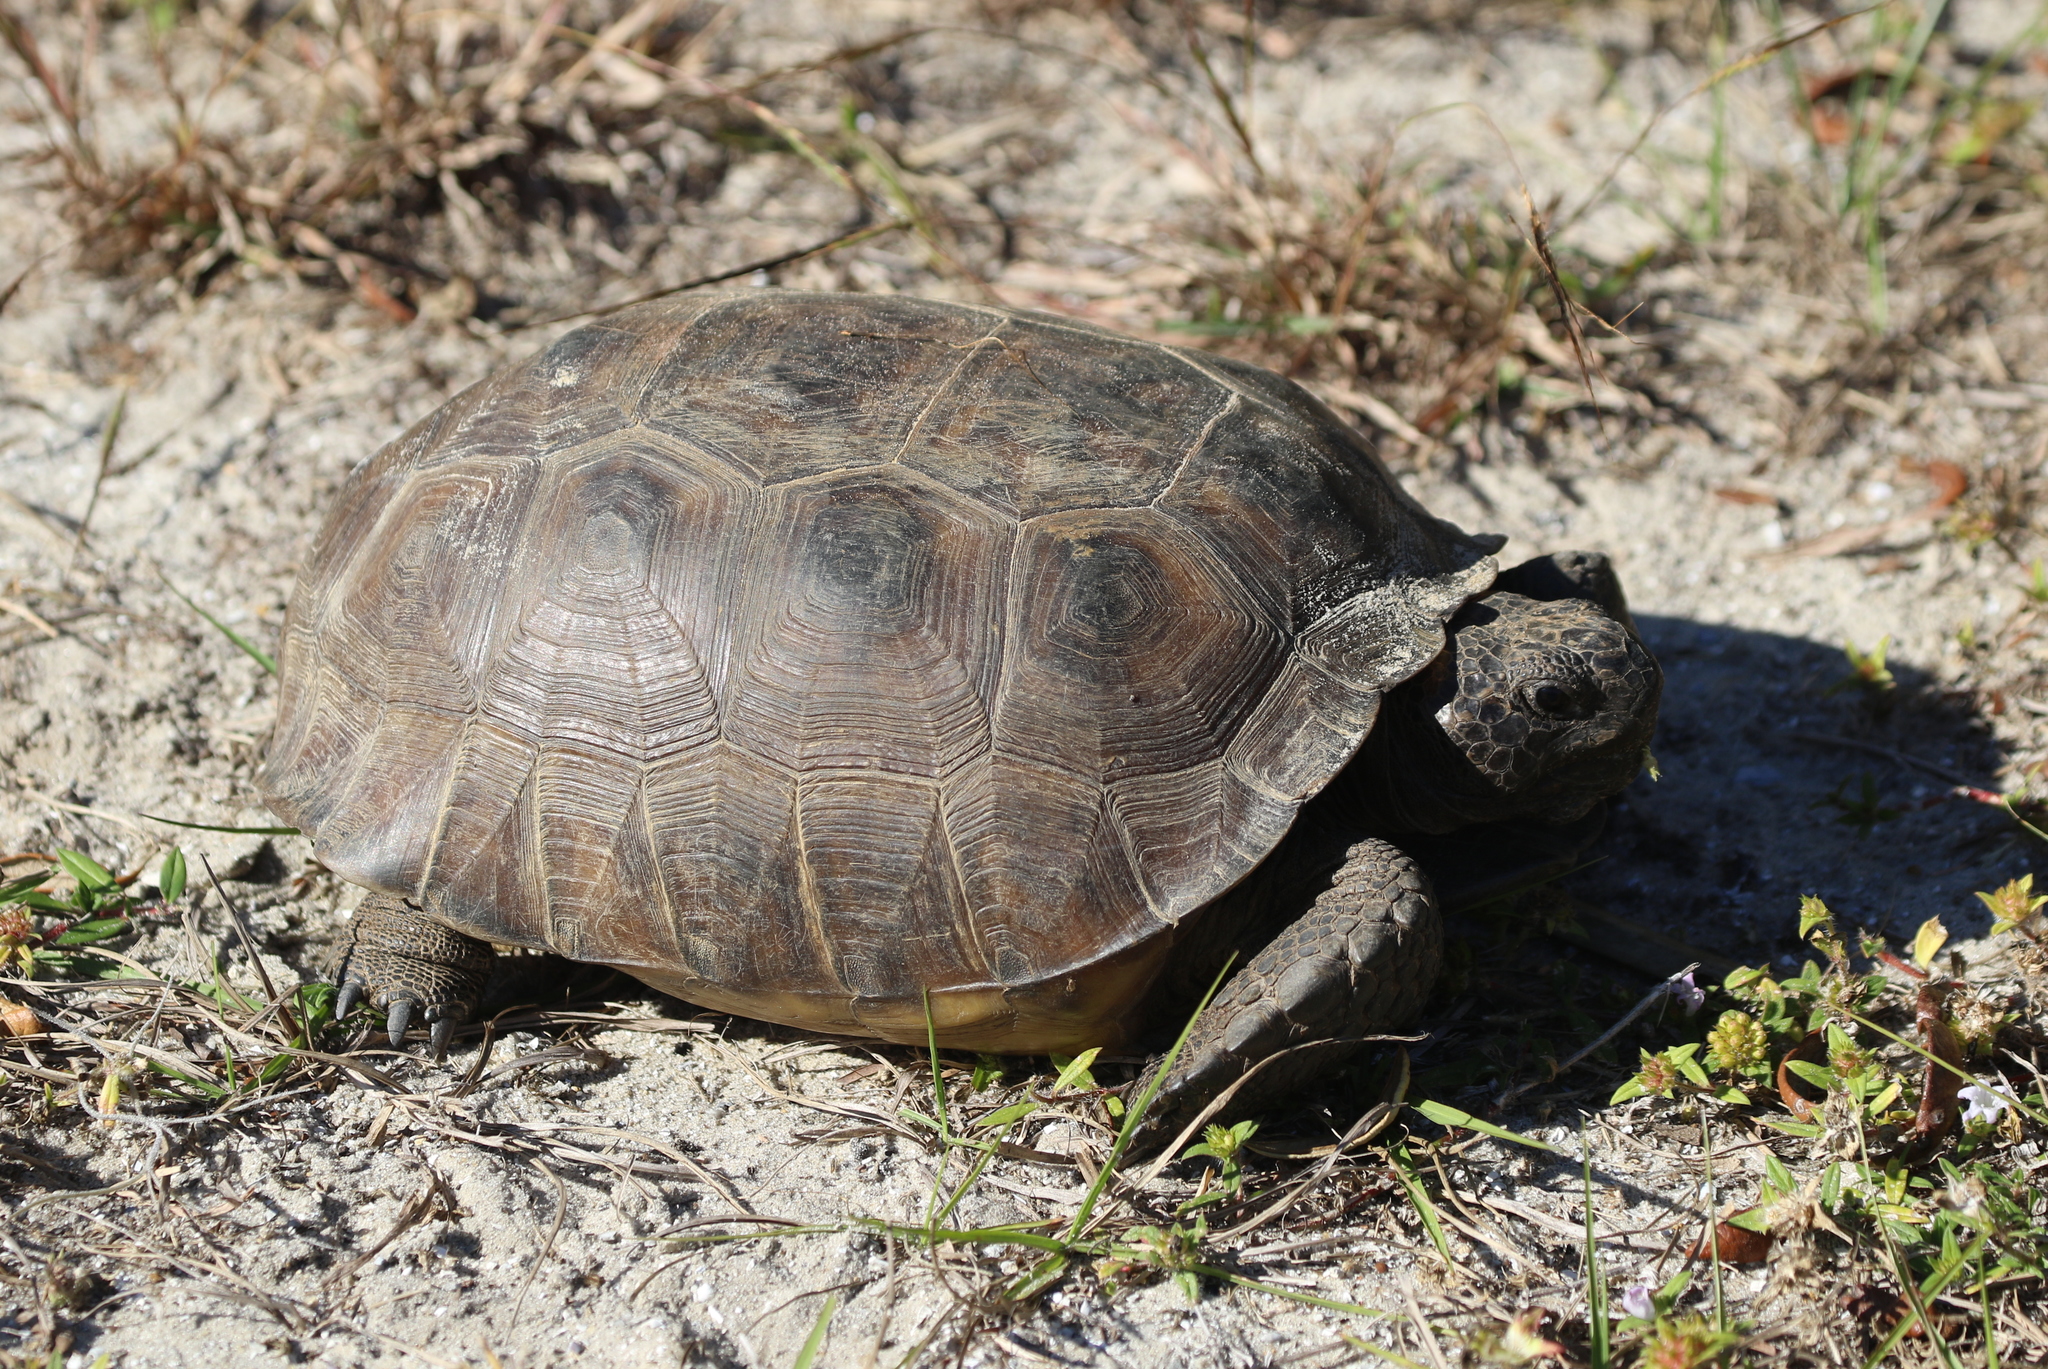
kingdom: Animalia
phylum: Chordata
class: Testudines
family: Testudinidae
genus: Gopherus
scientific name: Gopherus polyphemus
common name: Florida gopher tortoise
